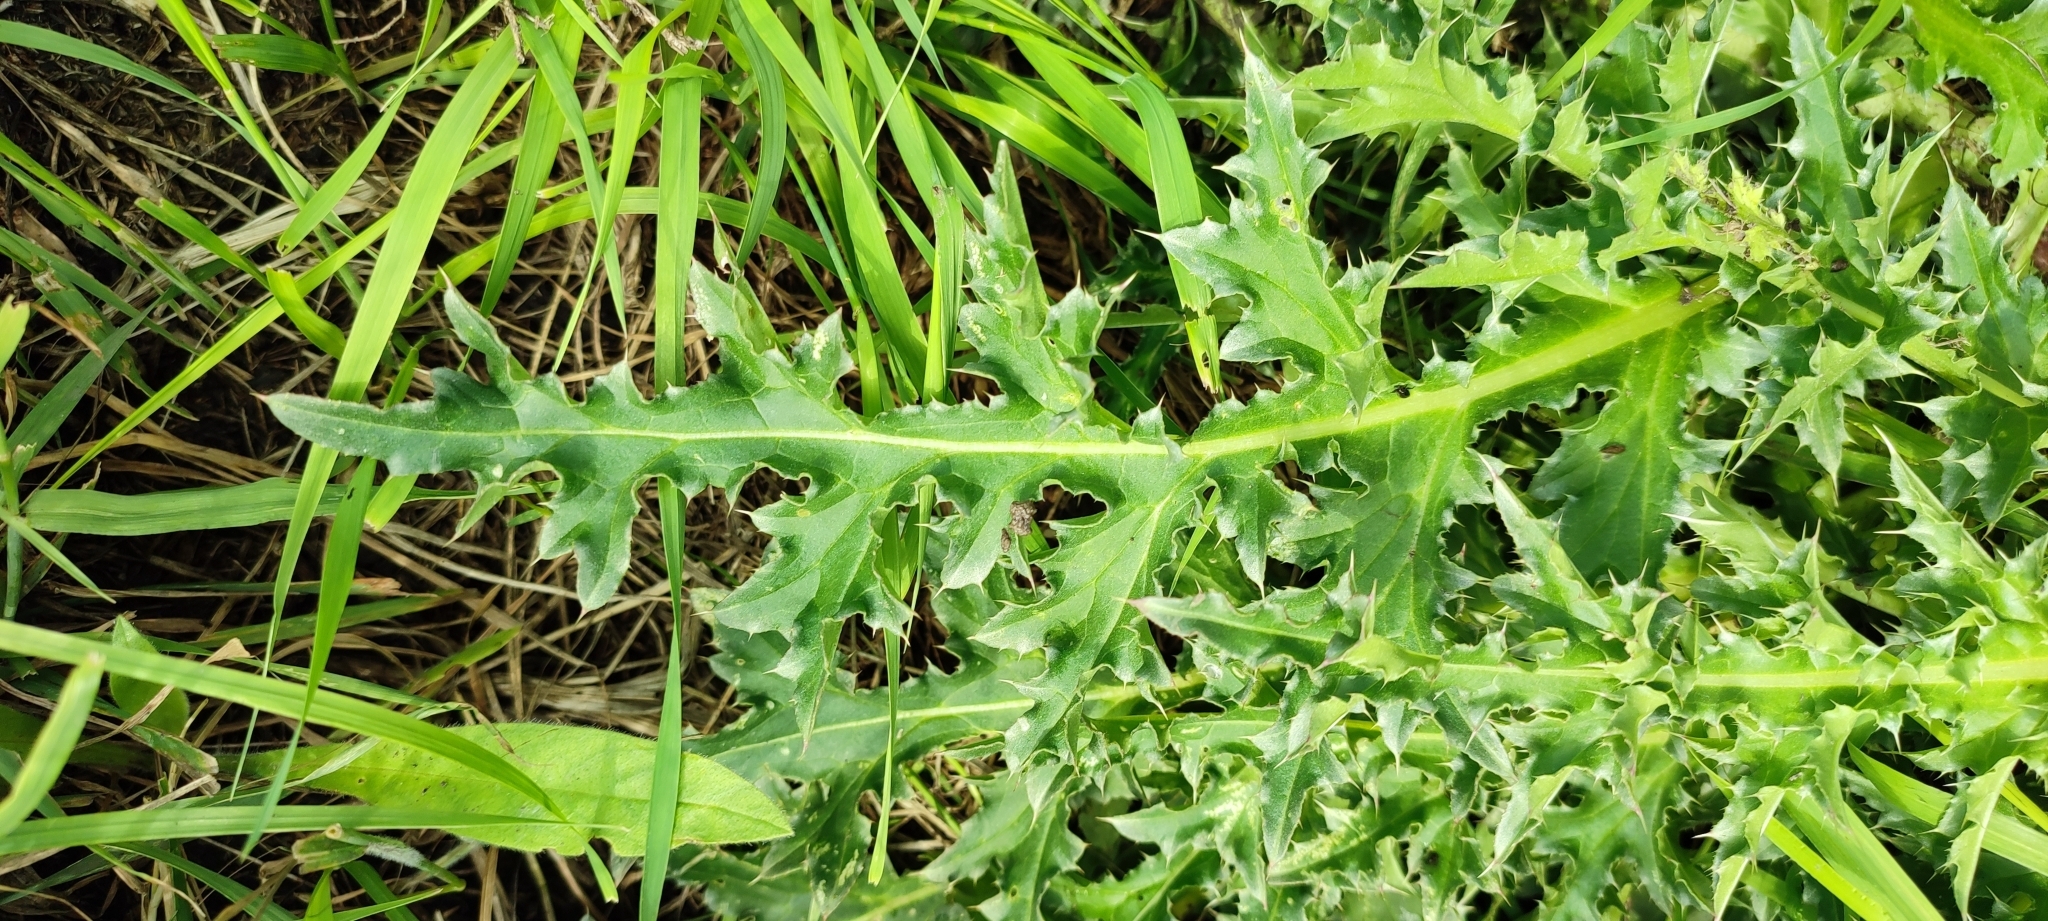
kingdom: Plantae
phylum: Tracheophyta
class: Magnoliopsida
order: Asterales
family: Asteraceae
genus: Carduus
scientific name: Carduus nutans
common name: Musk thistle
